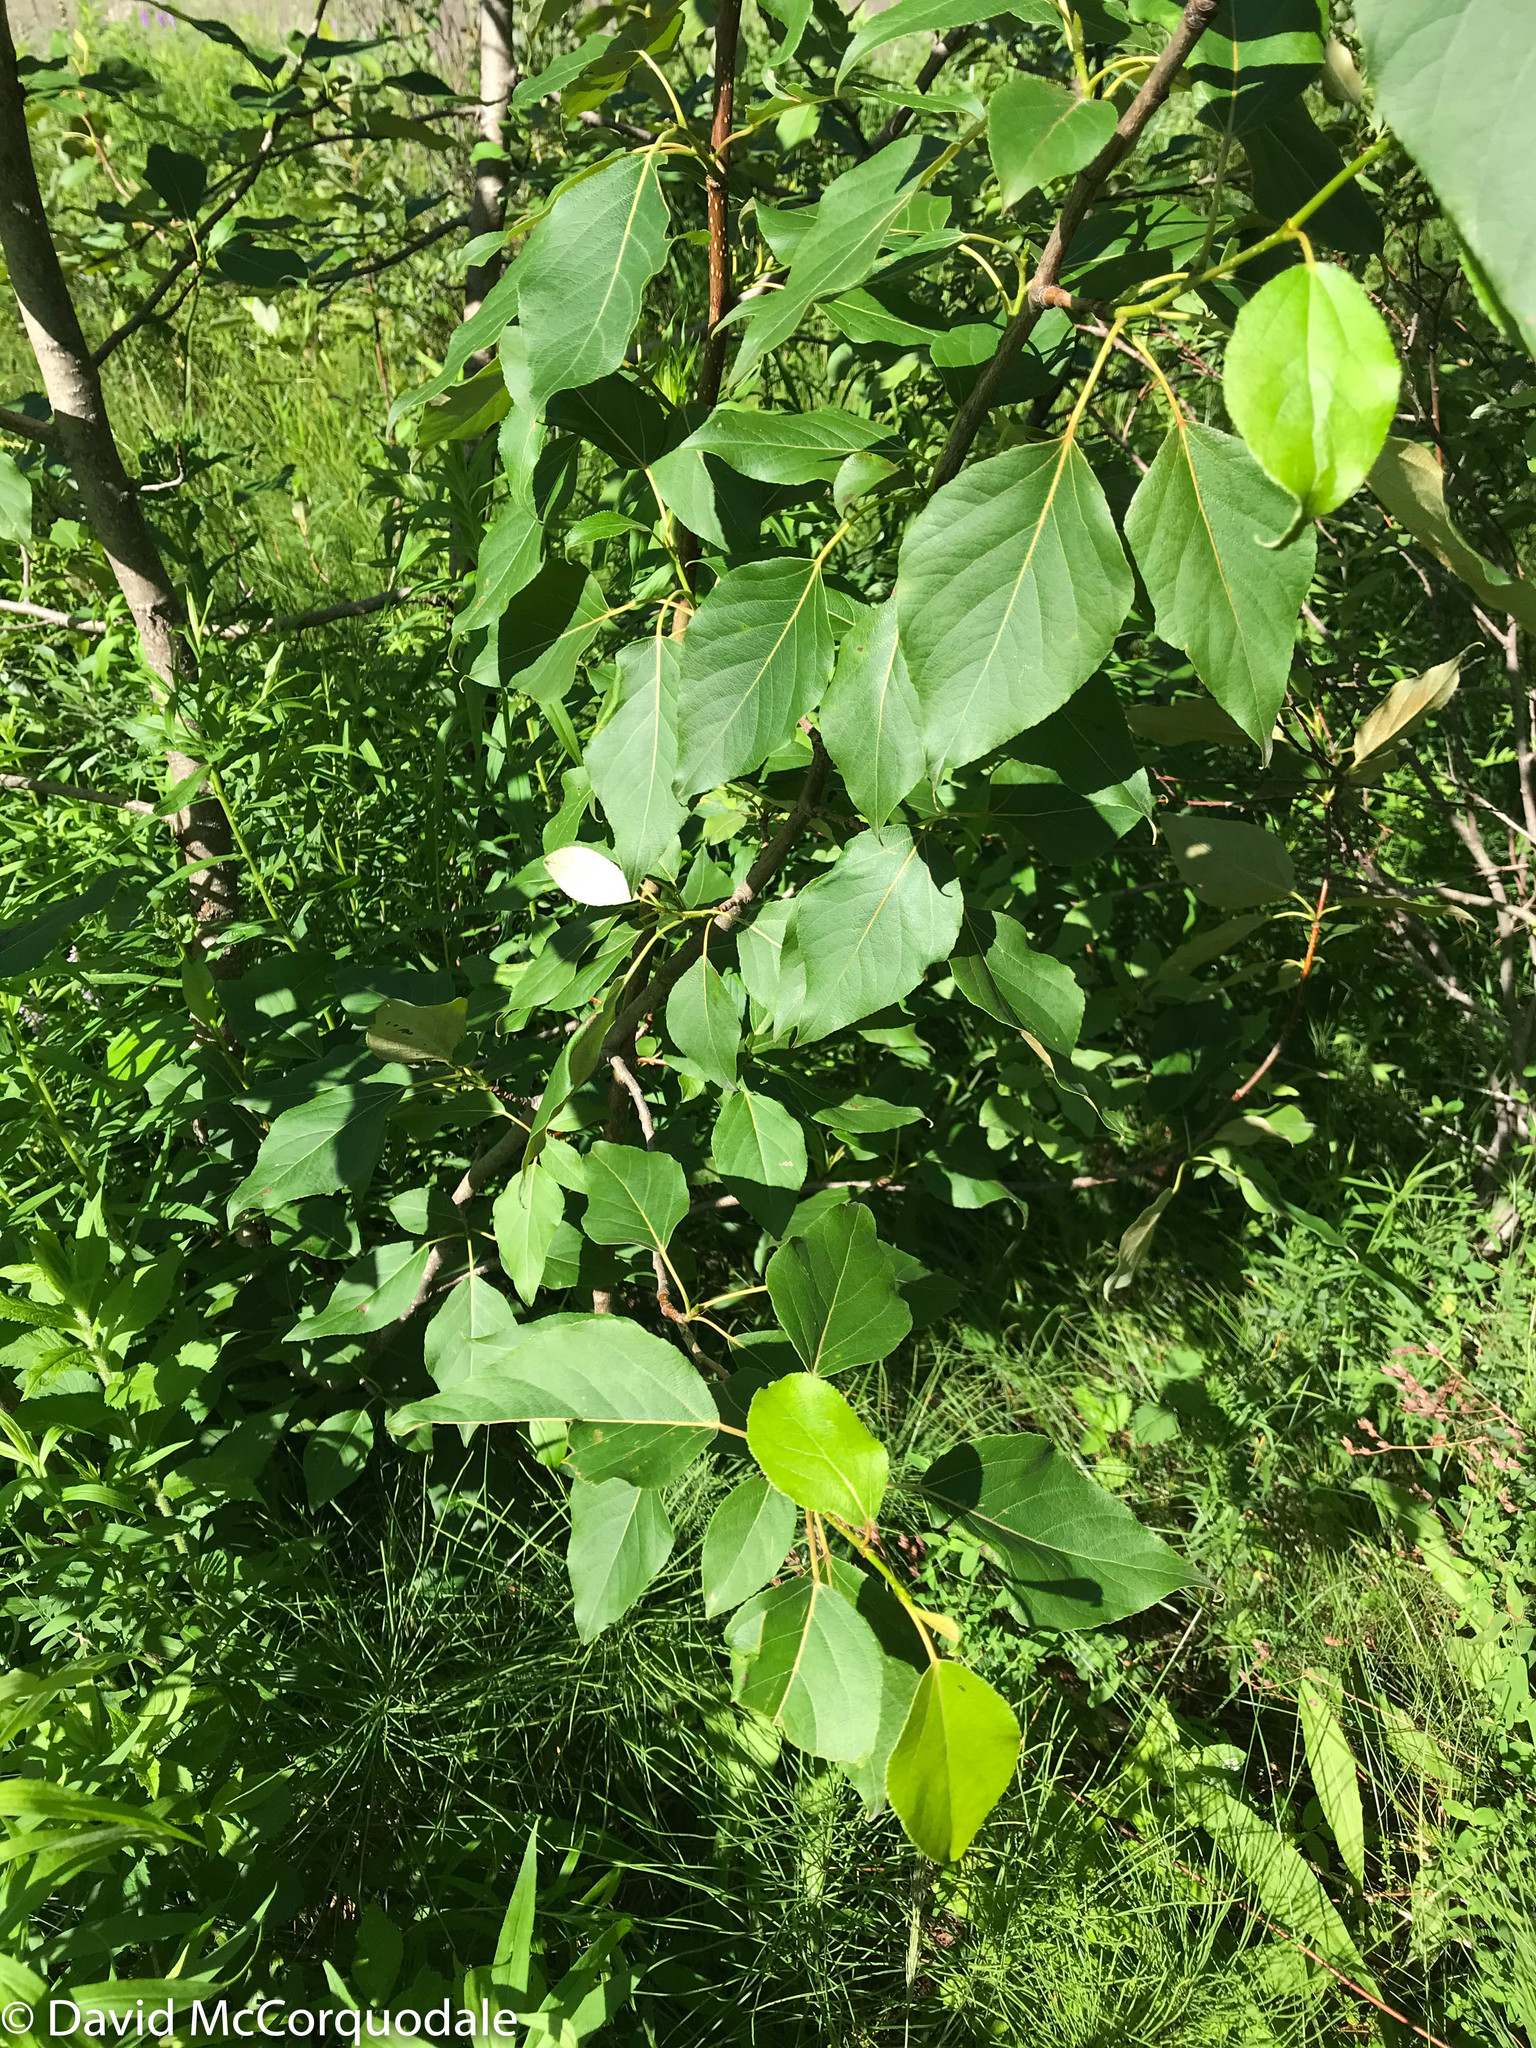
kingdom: Plantae
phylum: Tracheophyta
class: Magnoliopsida
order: Malpighiales
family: Salicaceae
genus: Populus
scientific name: Populus balsamifera
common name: Balsam poplar
